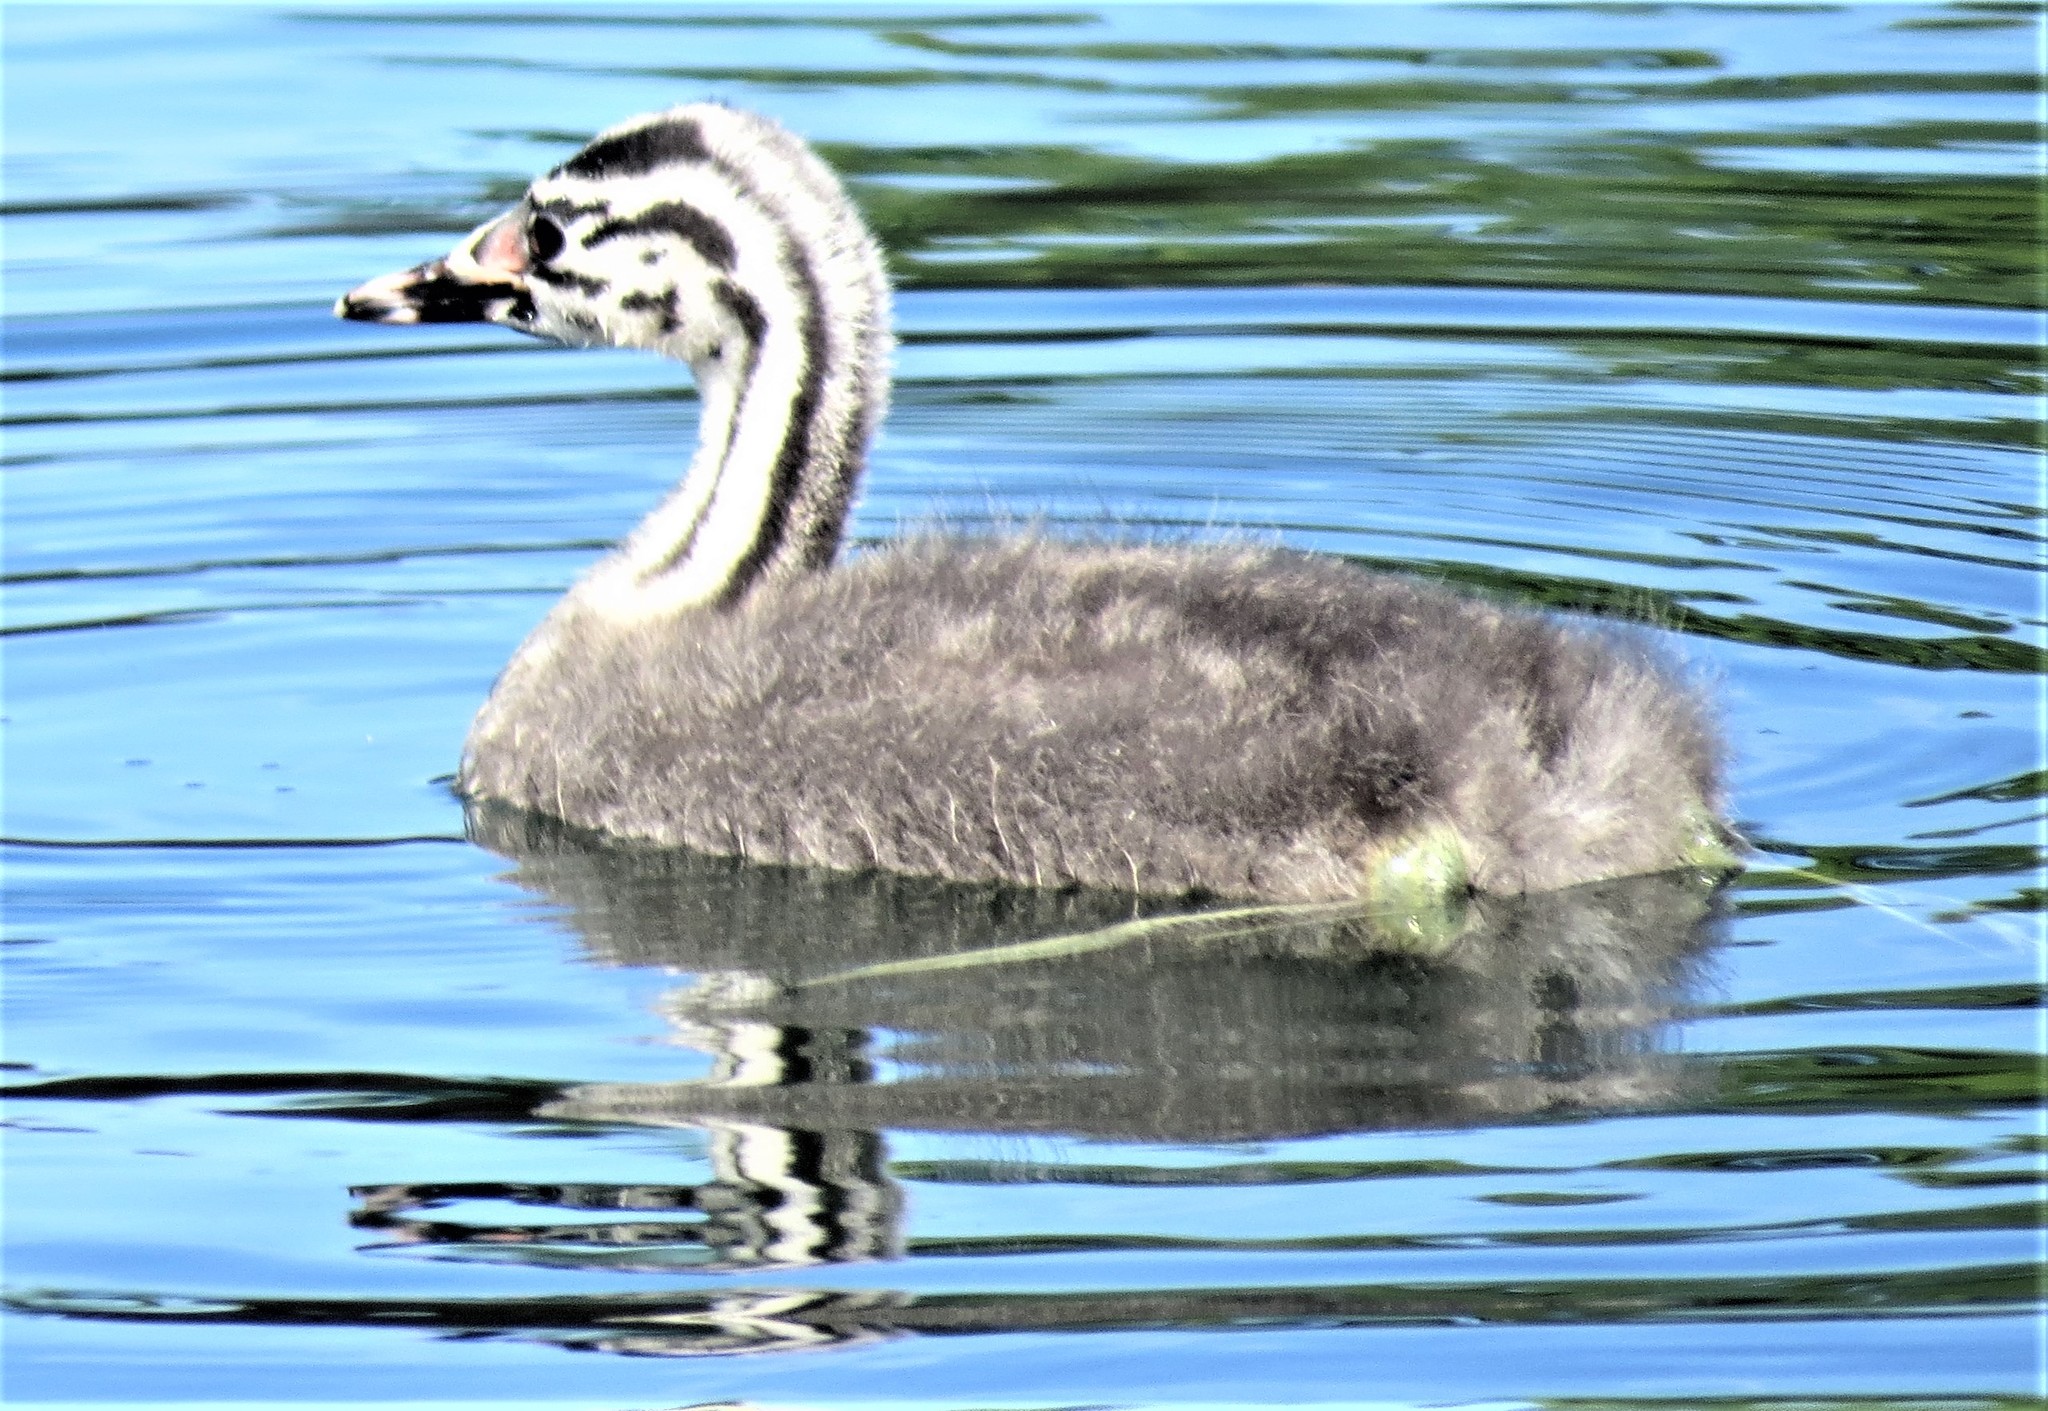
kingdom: Animalia
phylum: Chordata
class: Aves
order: Podicipediformes
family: Podicipedidae
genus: Podiceps
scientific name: Podiceps cristatus
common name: Great crested grebe
